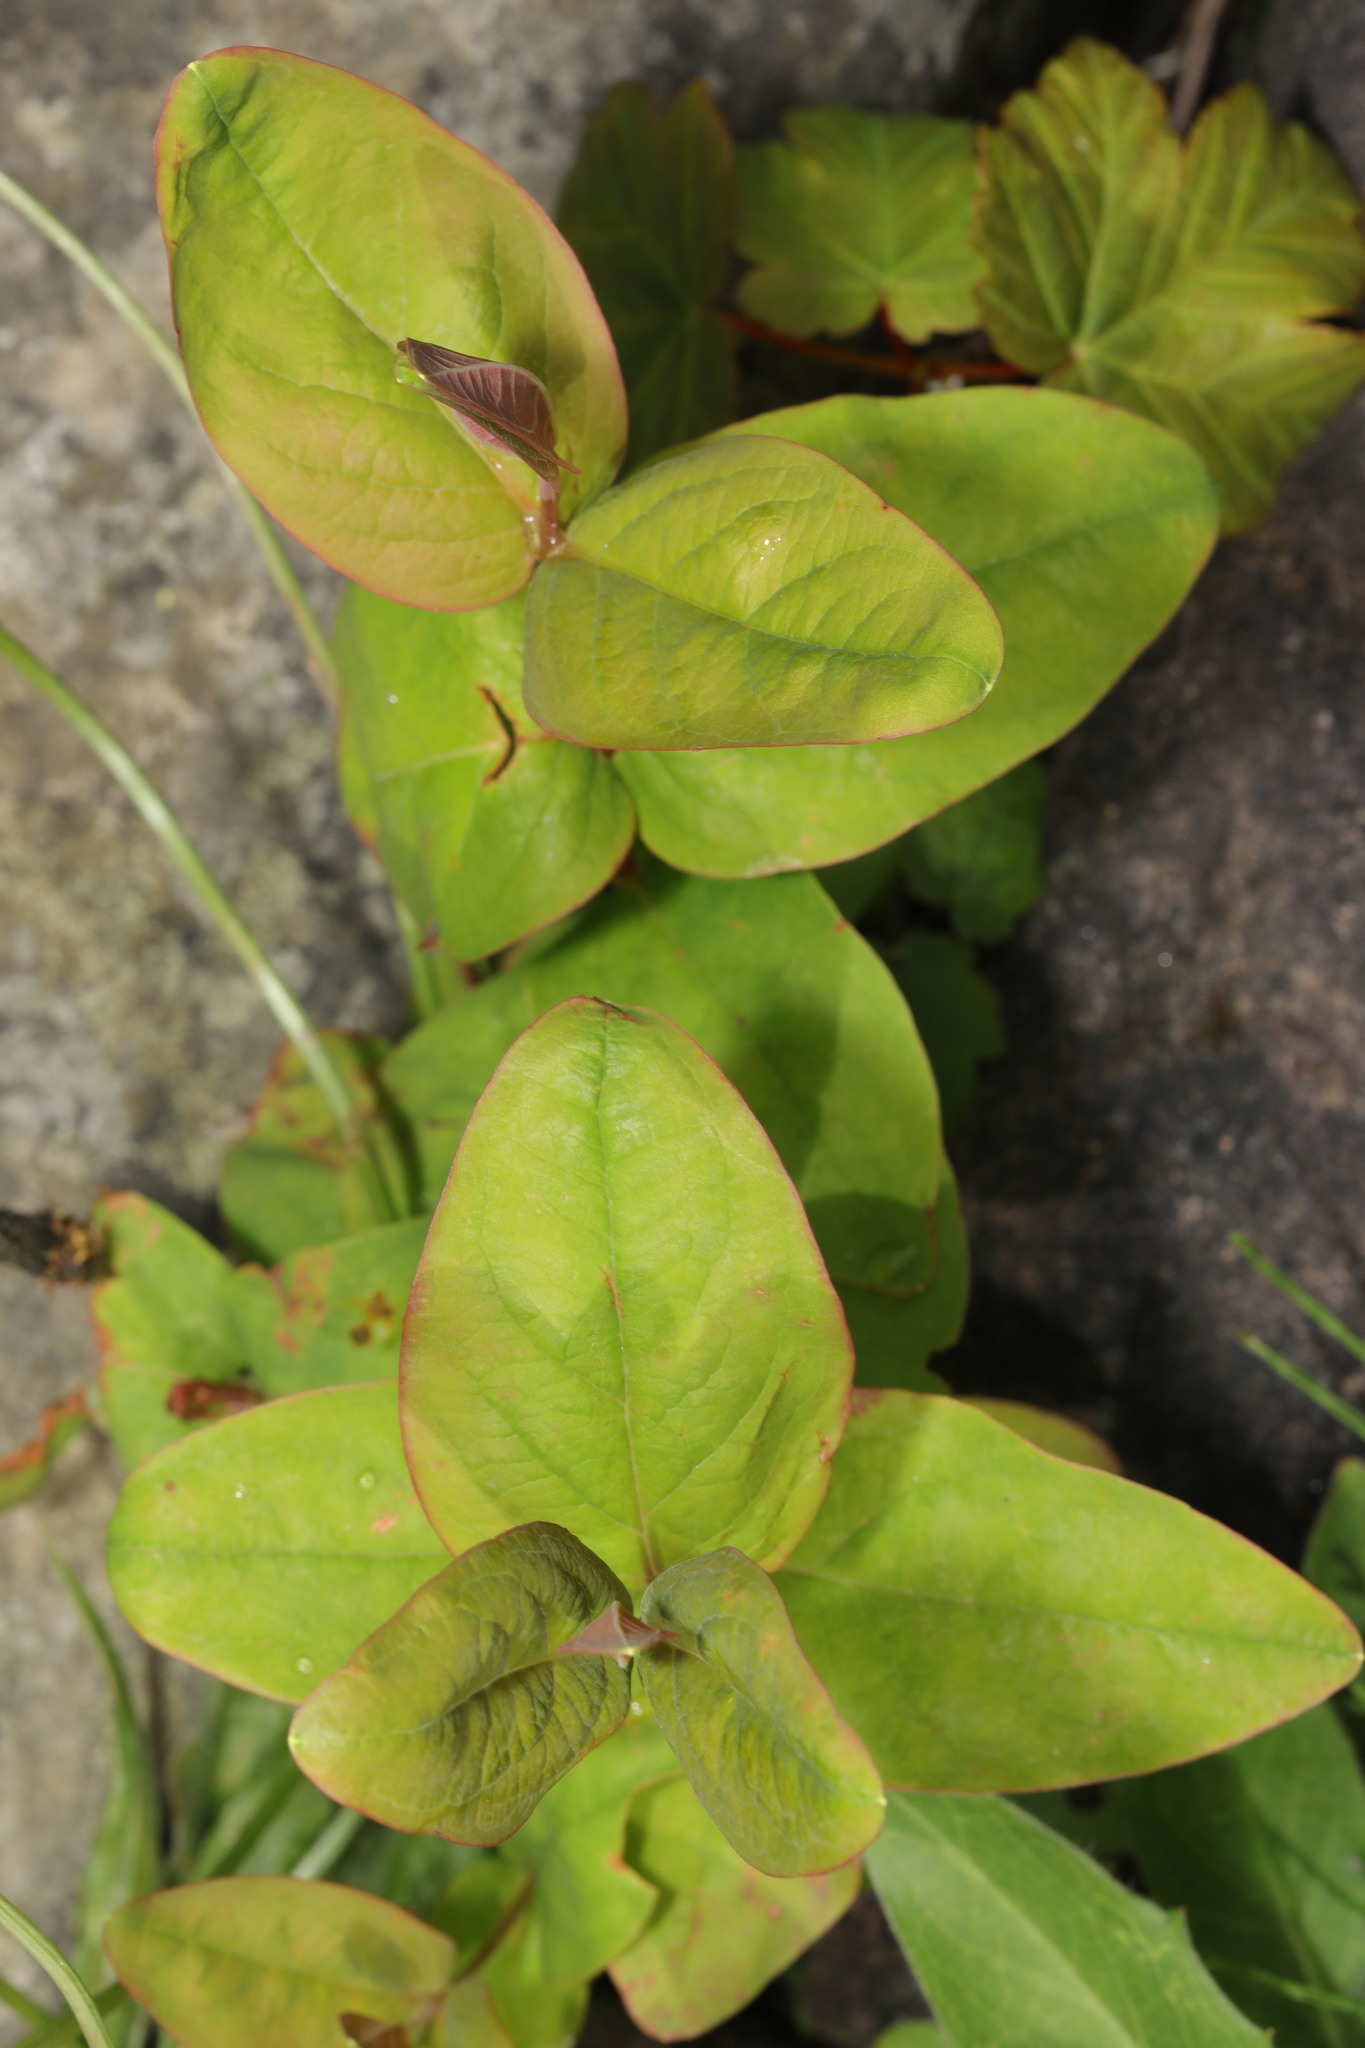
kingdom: Plantae
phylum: Tracheophyta
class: Magnoliopsida
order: Malpighiales
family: Hypericaceae
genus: Hypericum
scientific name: Hypericum androsaemum
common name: Sweet-amber
